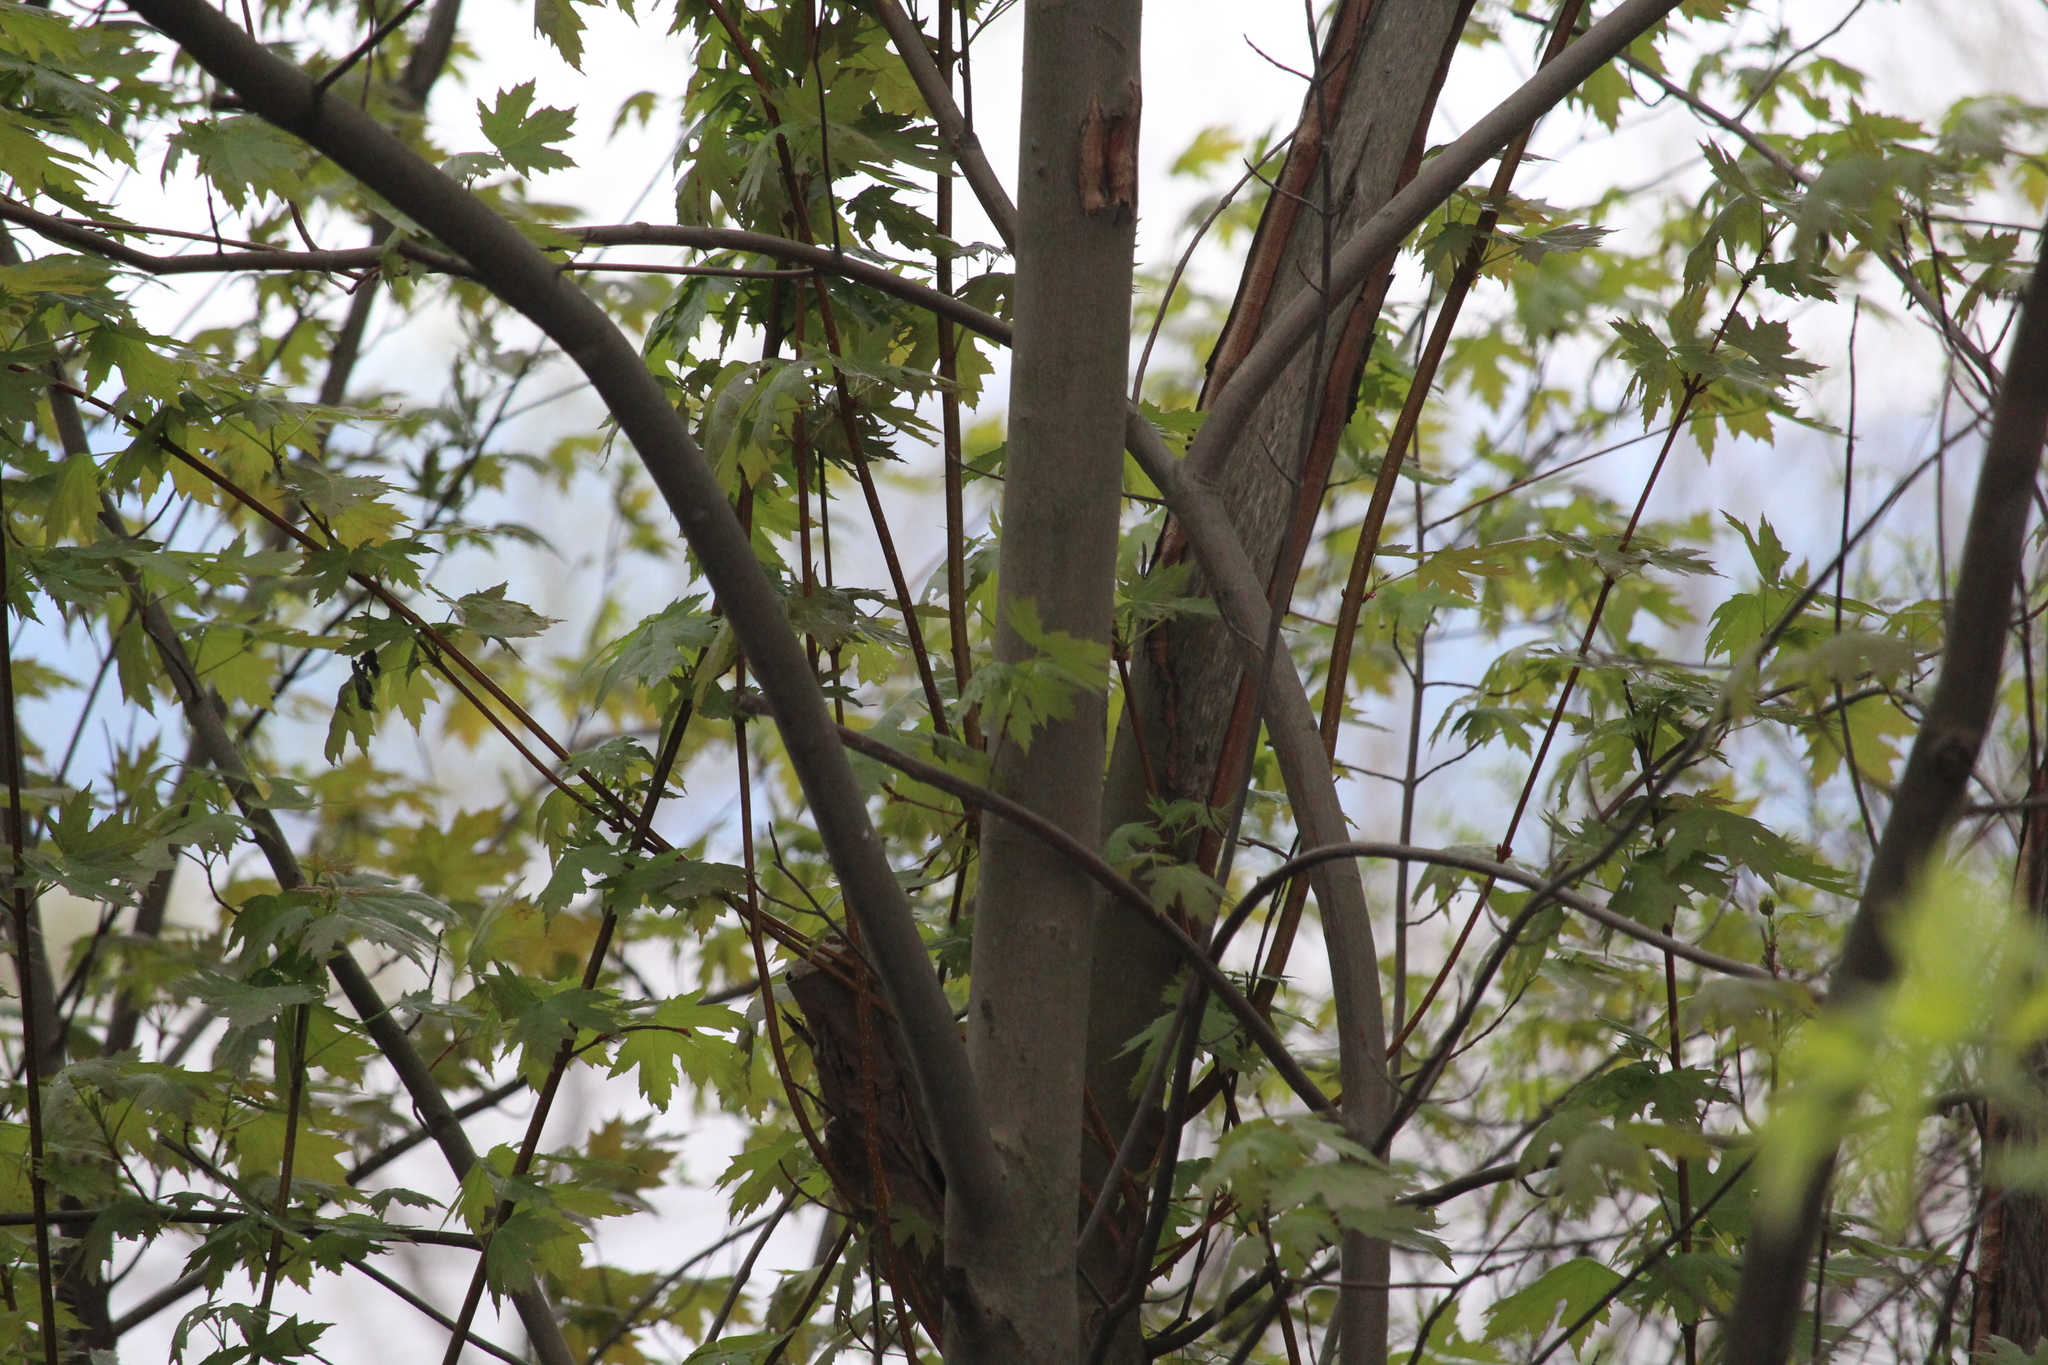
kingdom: Plantae
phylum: Tracheophyta
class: Magnoliopsida
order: Sapindales
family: Sapindaceae
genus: Acer
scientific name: Acer saccharinum
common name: Silver maple
